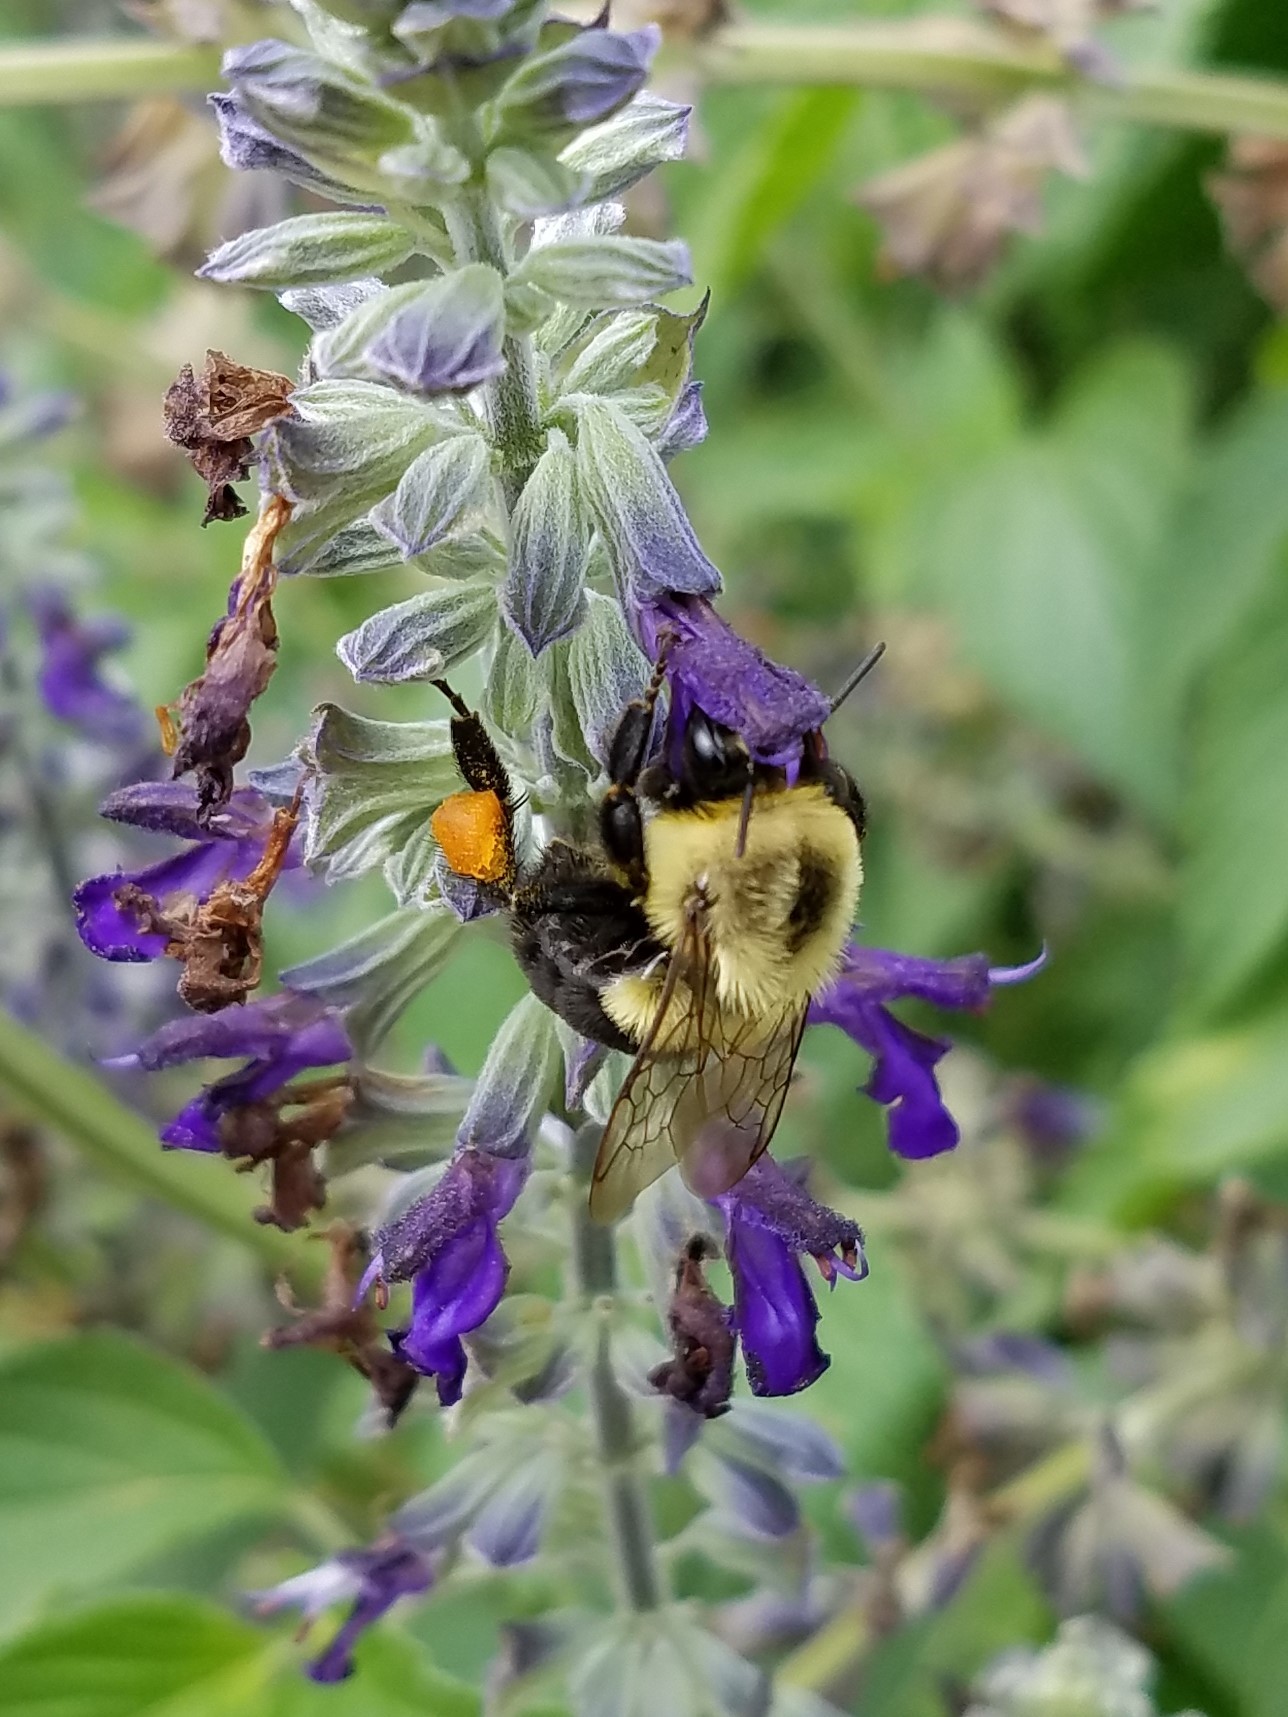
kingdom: Animalia
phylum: Arthropoda
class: Insecta
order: Hymenoptera
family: Apidae
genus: Bombus
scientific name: Bombus impatiens
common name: Common eastern bumble bee
